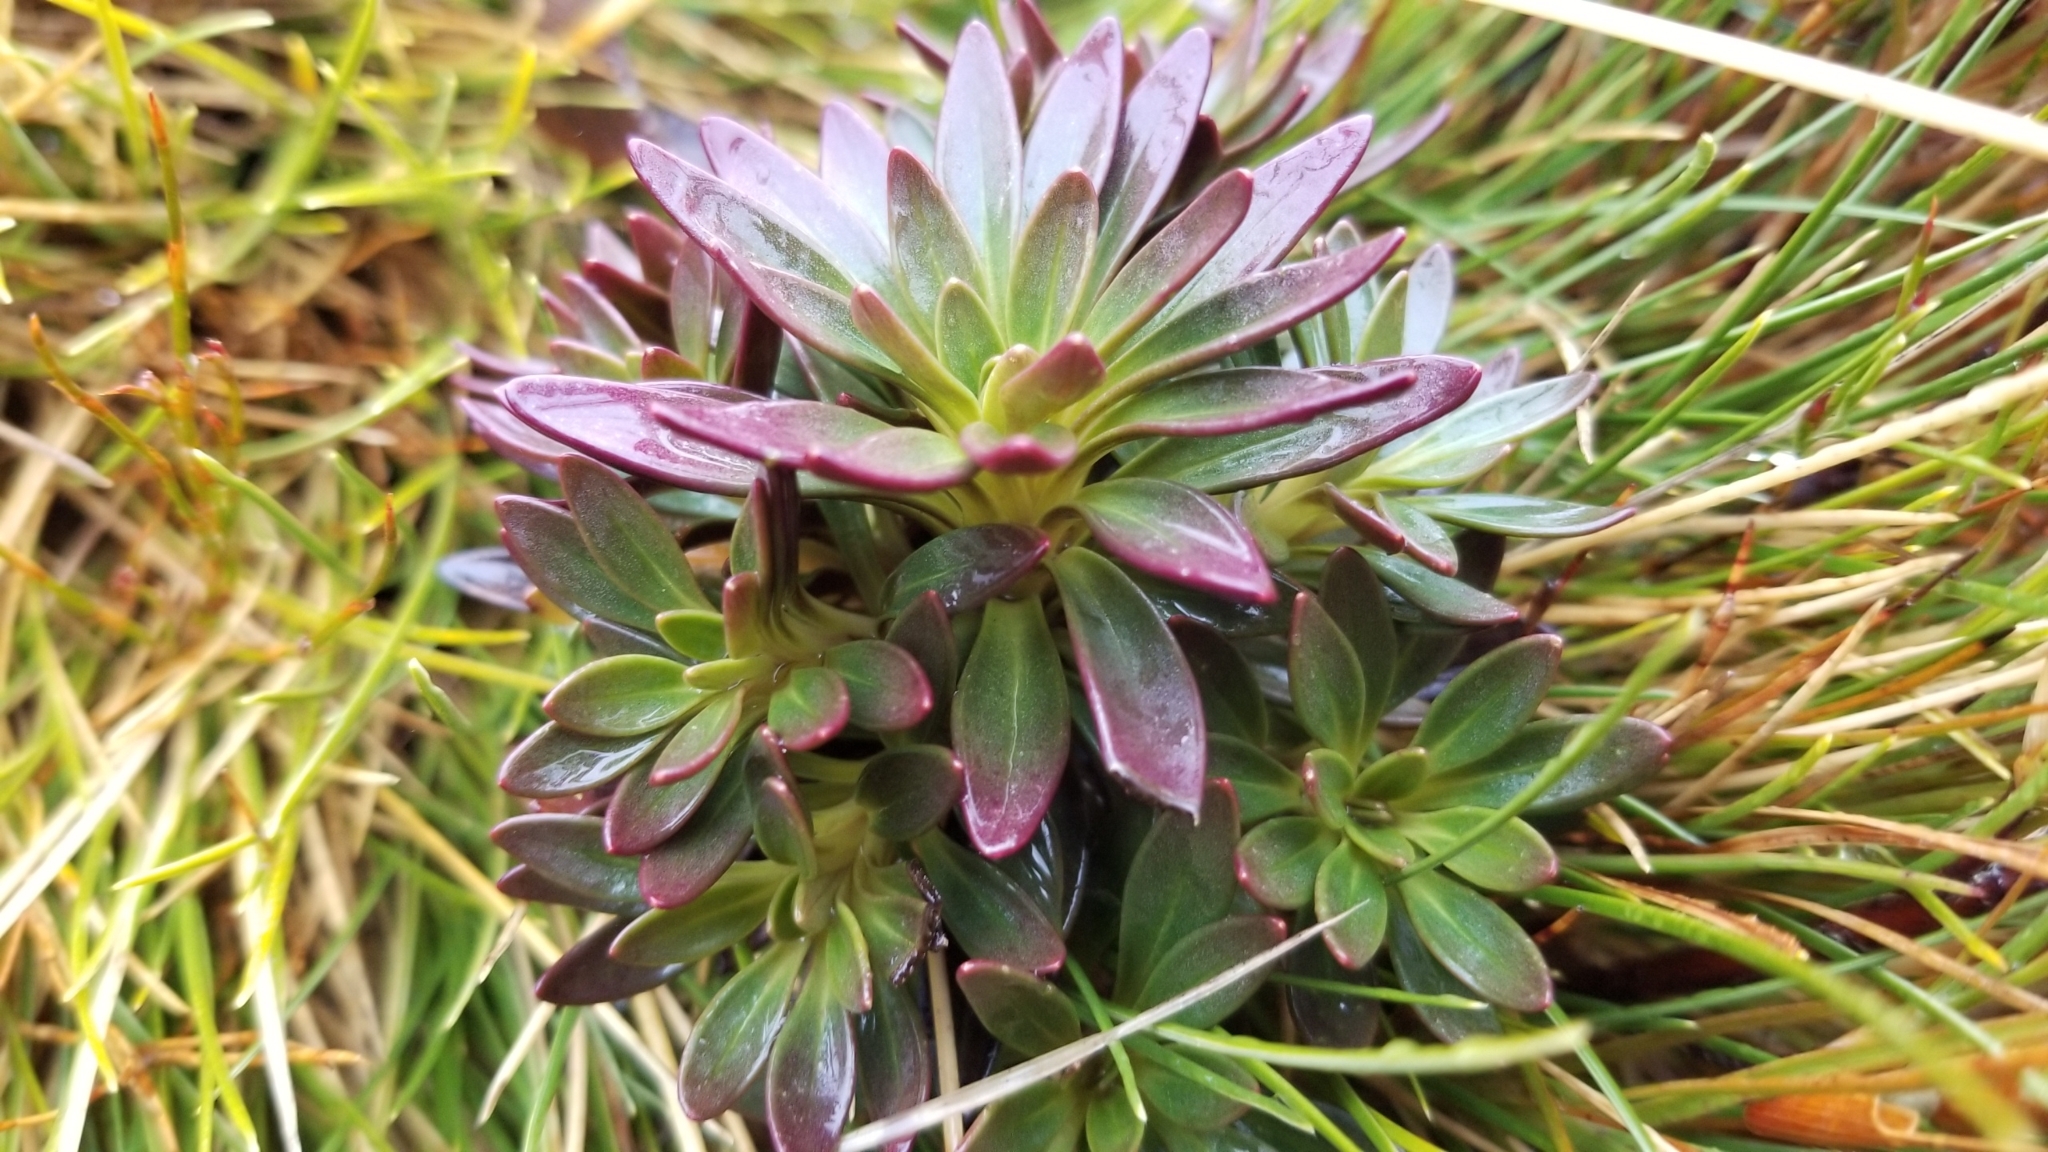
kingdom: Plantae
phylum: Tracheophyta
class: Magnoliopsida
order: Gentianales
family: Gentianaceae
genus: Gentianella
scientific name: Gentianella montana
